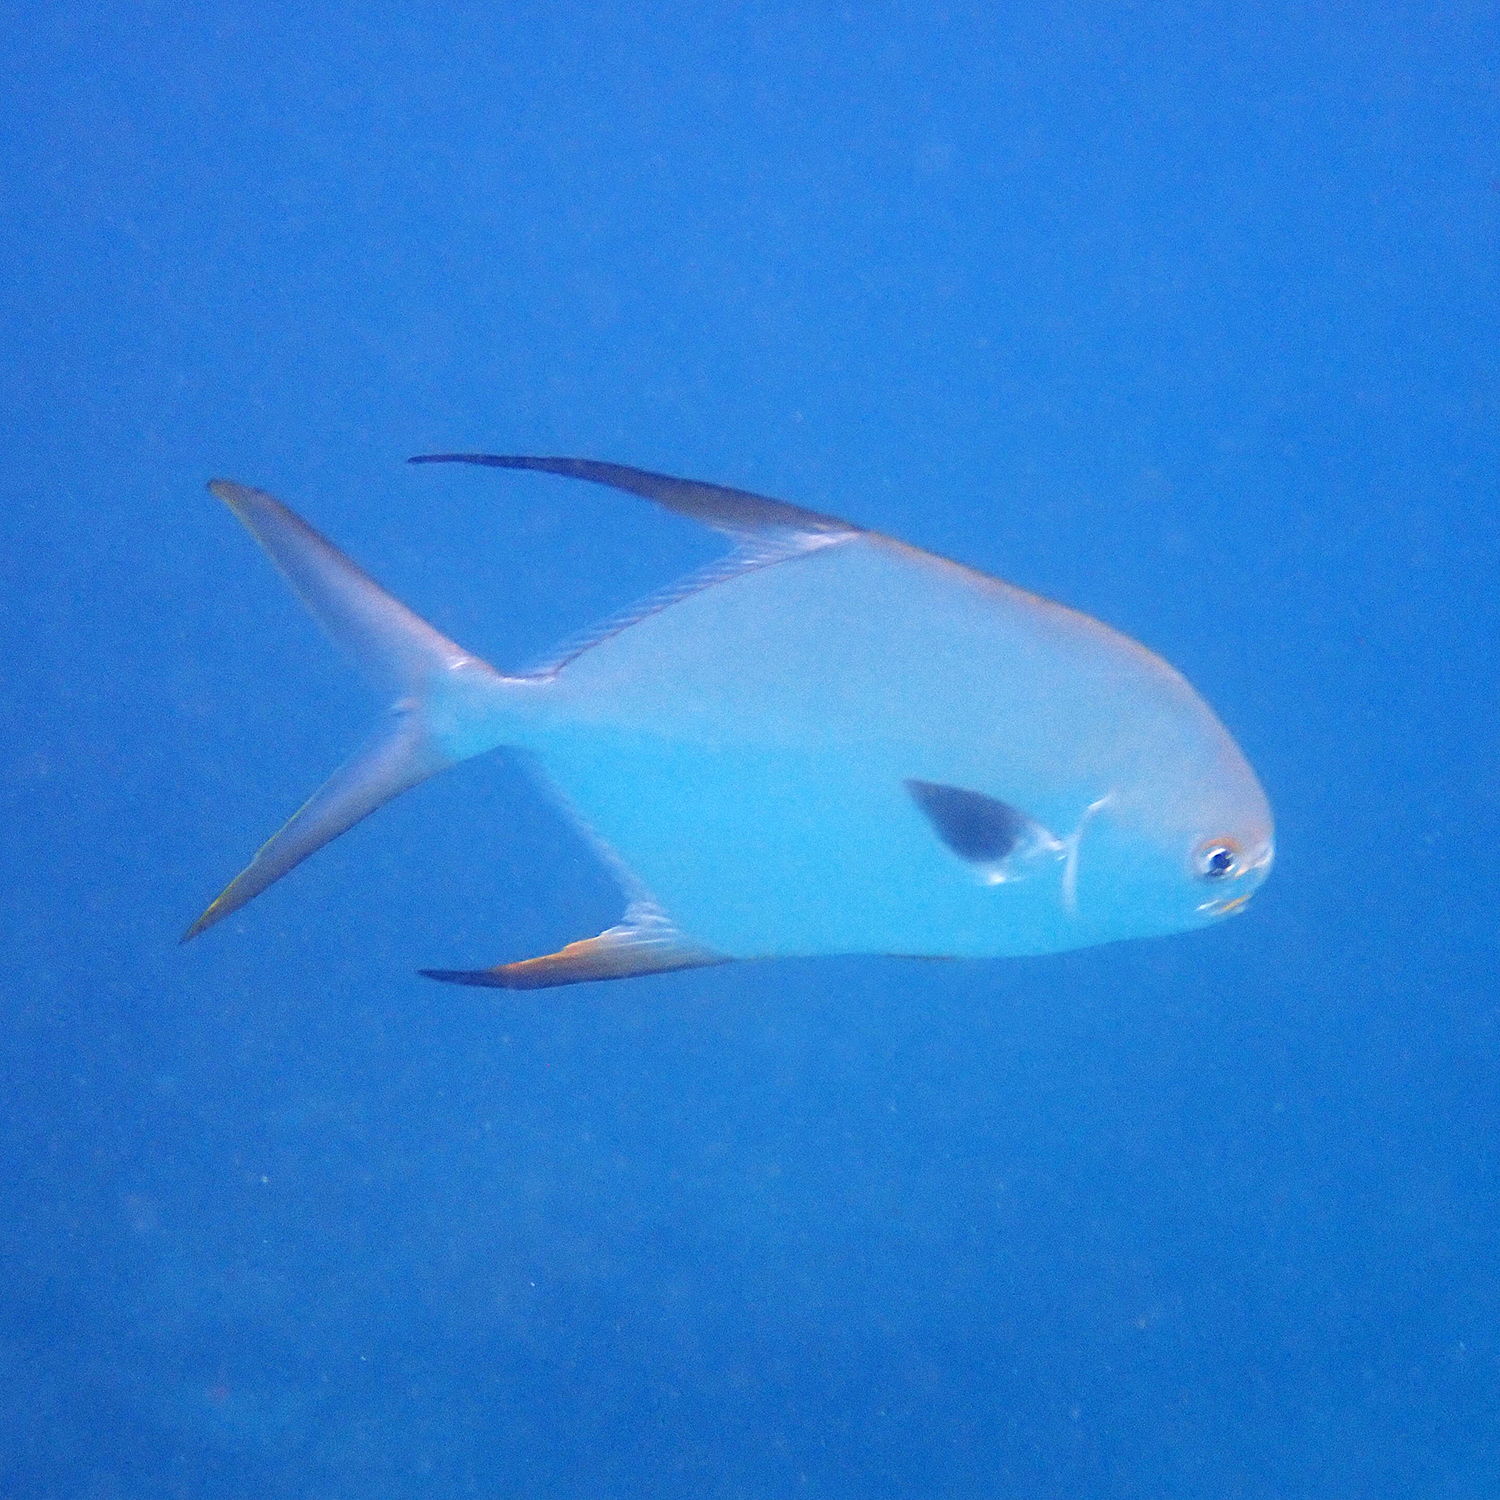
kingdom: Animalia
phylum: Chordata
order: Perciformes
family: Carangidae
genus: Trachinotus
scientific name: Trachinotus blochii
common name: Snubnose pompano
